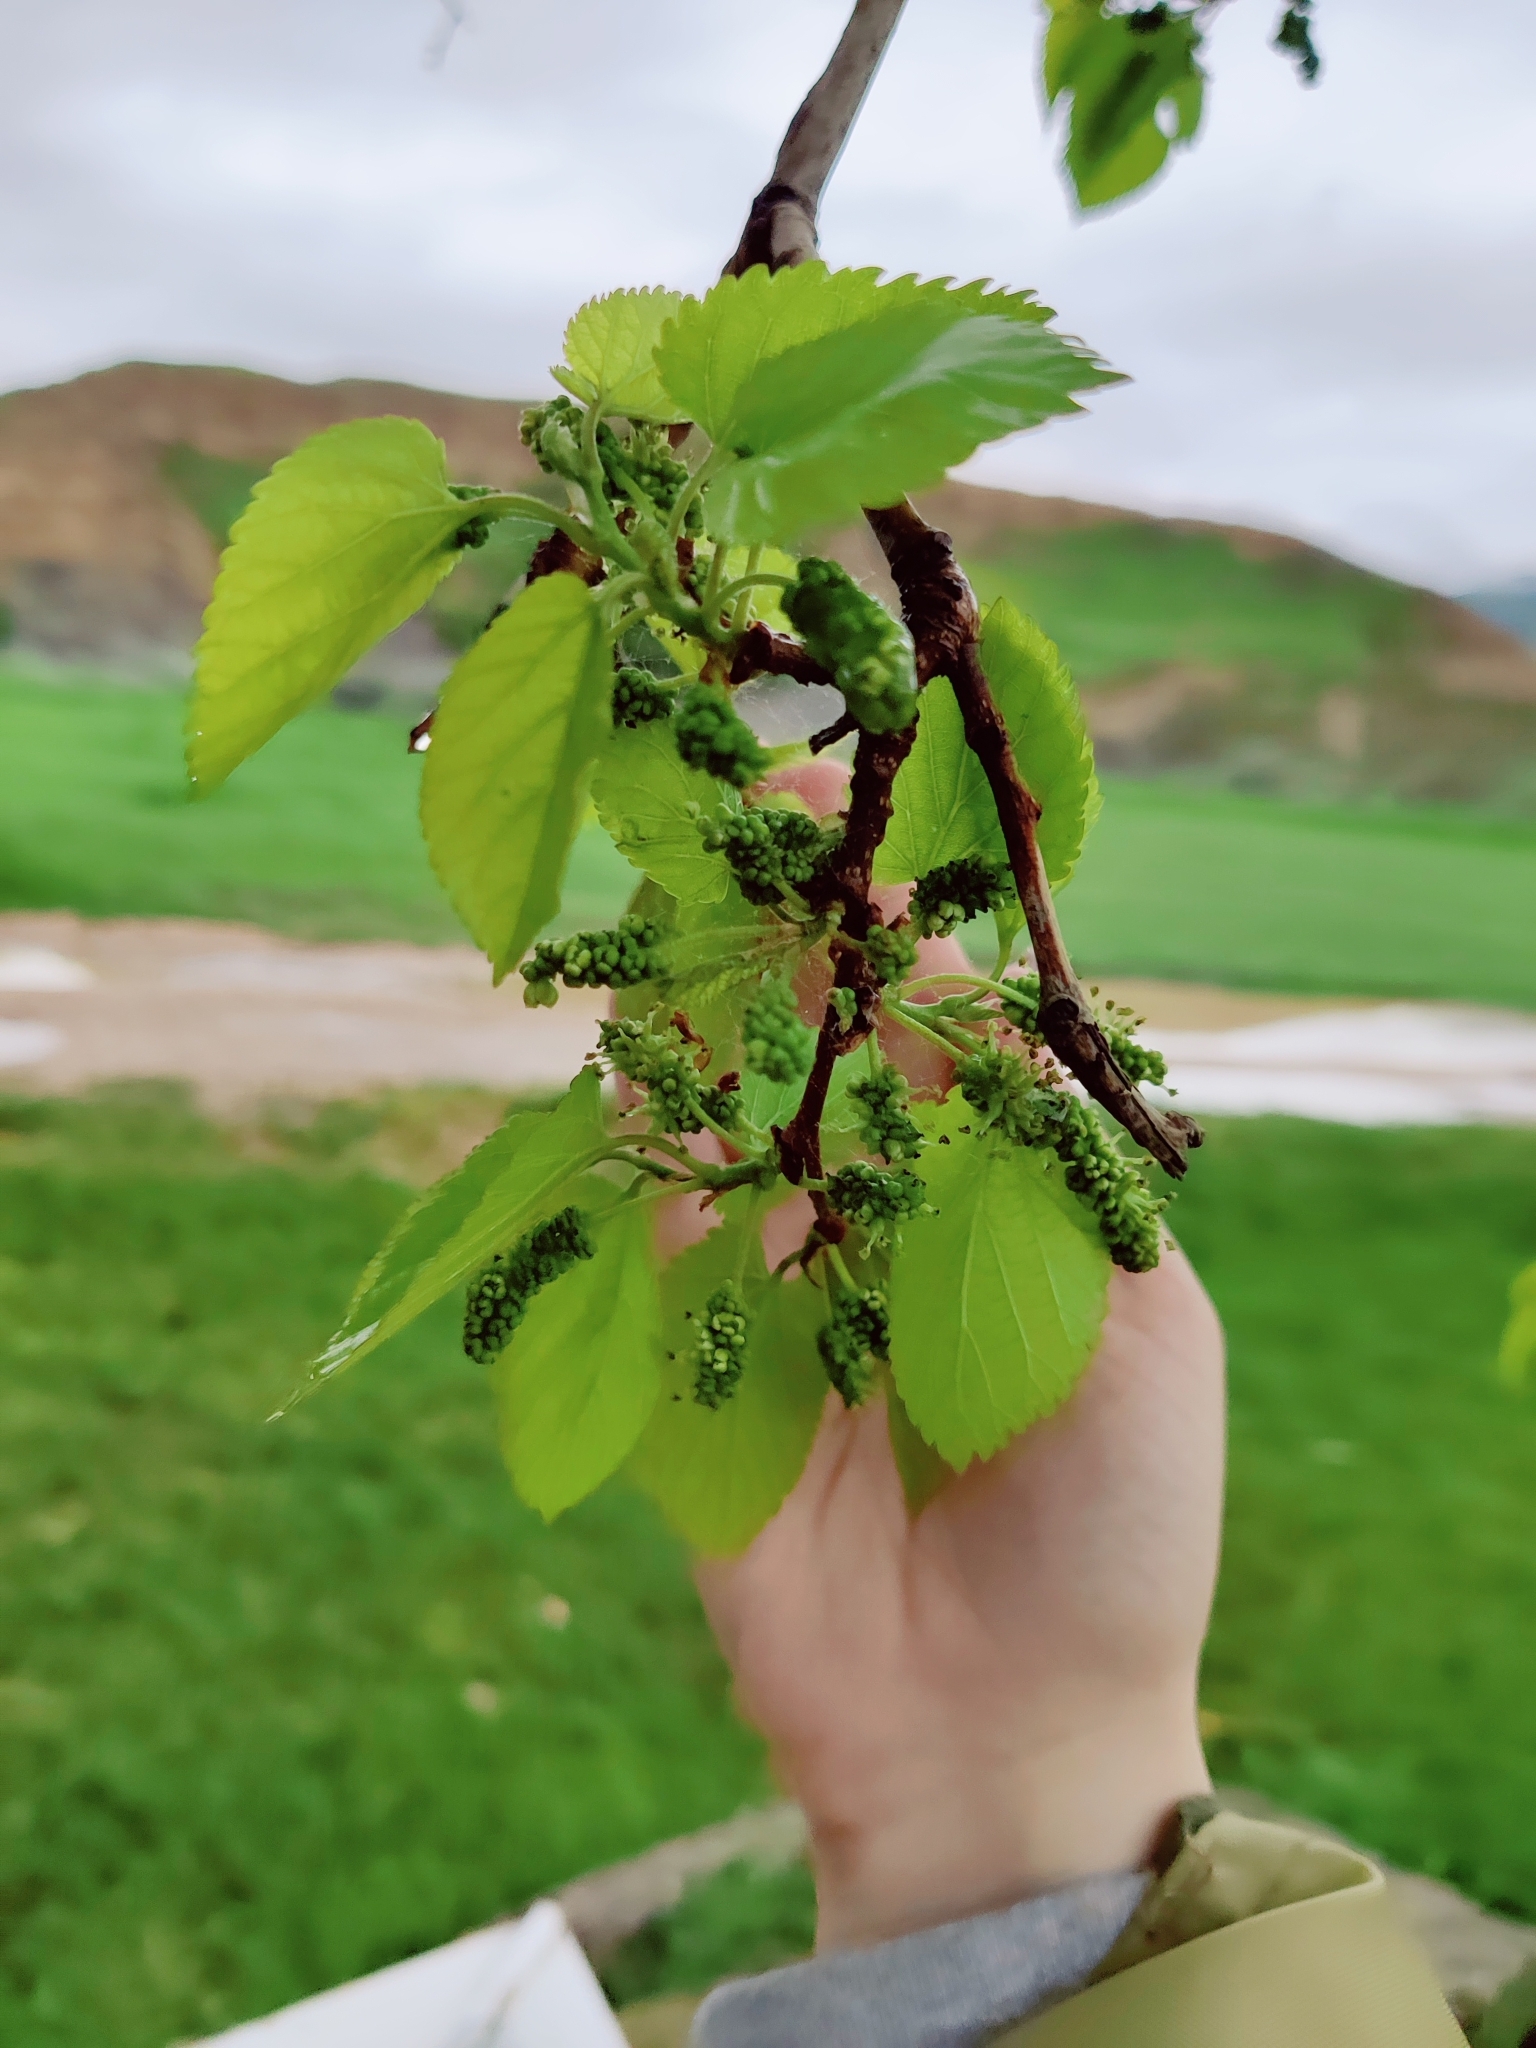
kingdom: Plantae
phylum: Tracheophyta
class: Magnoliopsida
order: Rosales
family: Moraceae
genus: Morus
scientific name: Morus alba
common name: White mulberry
